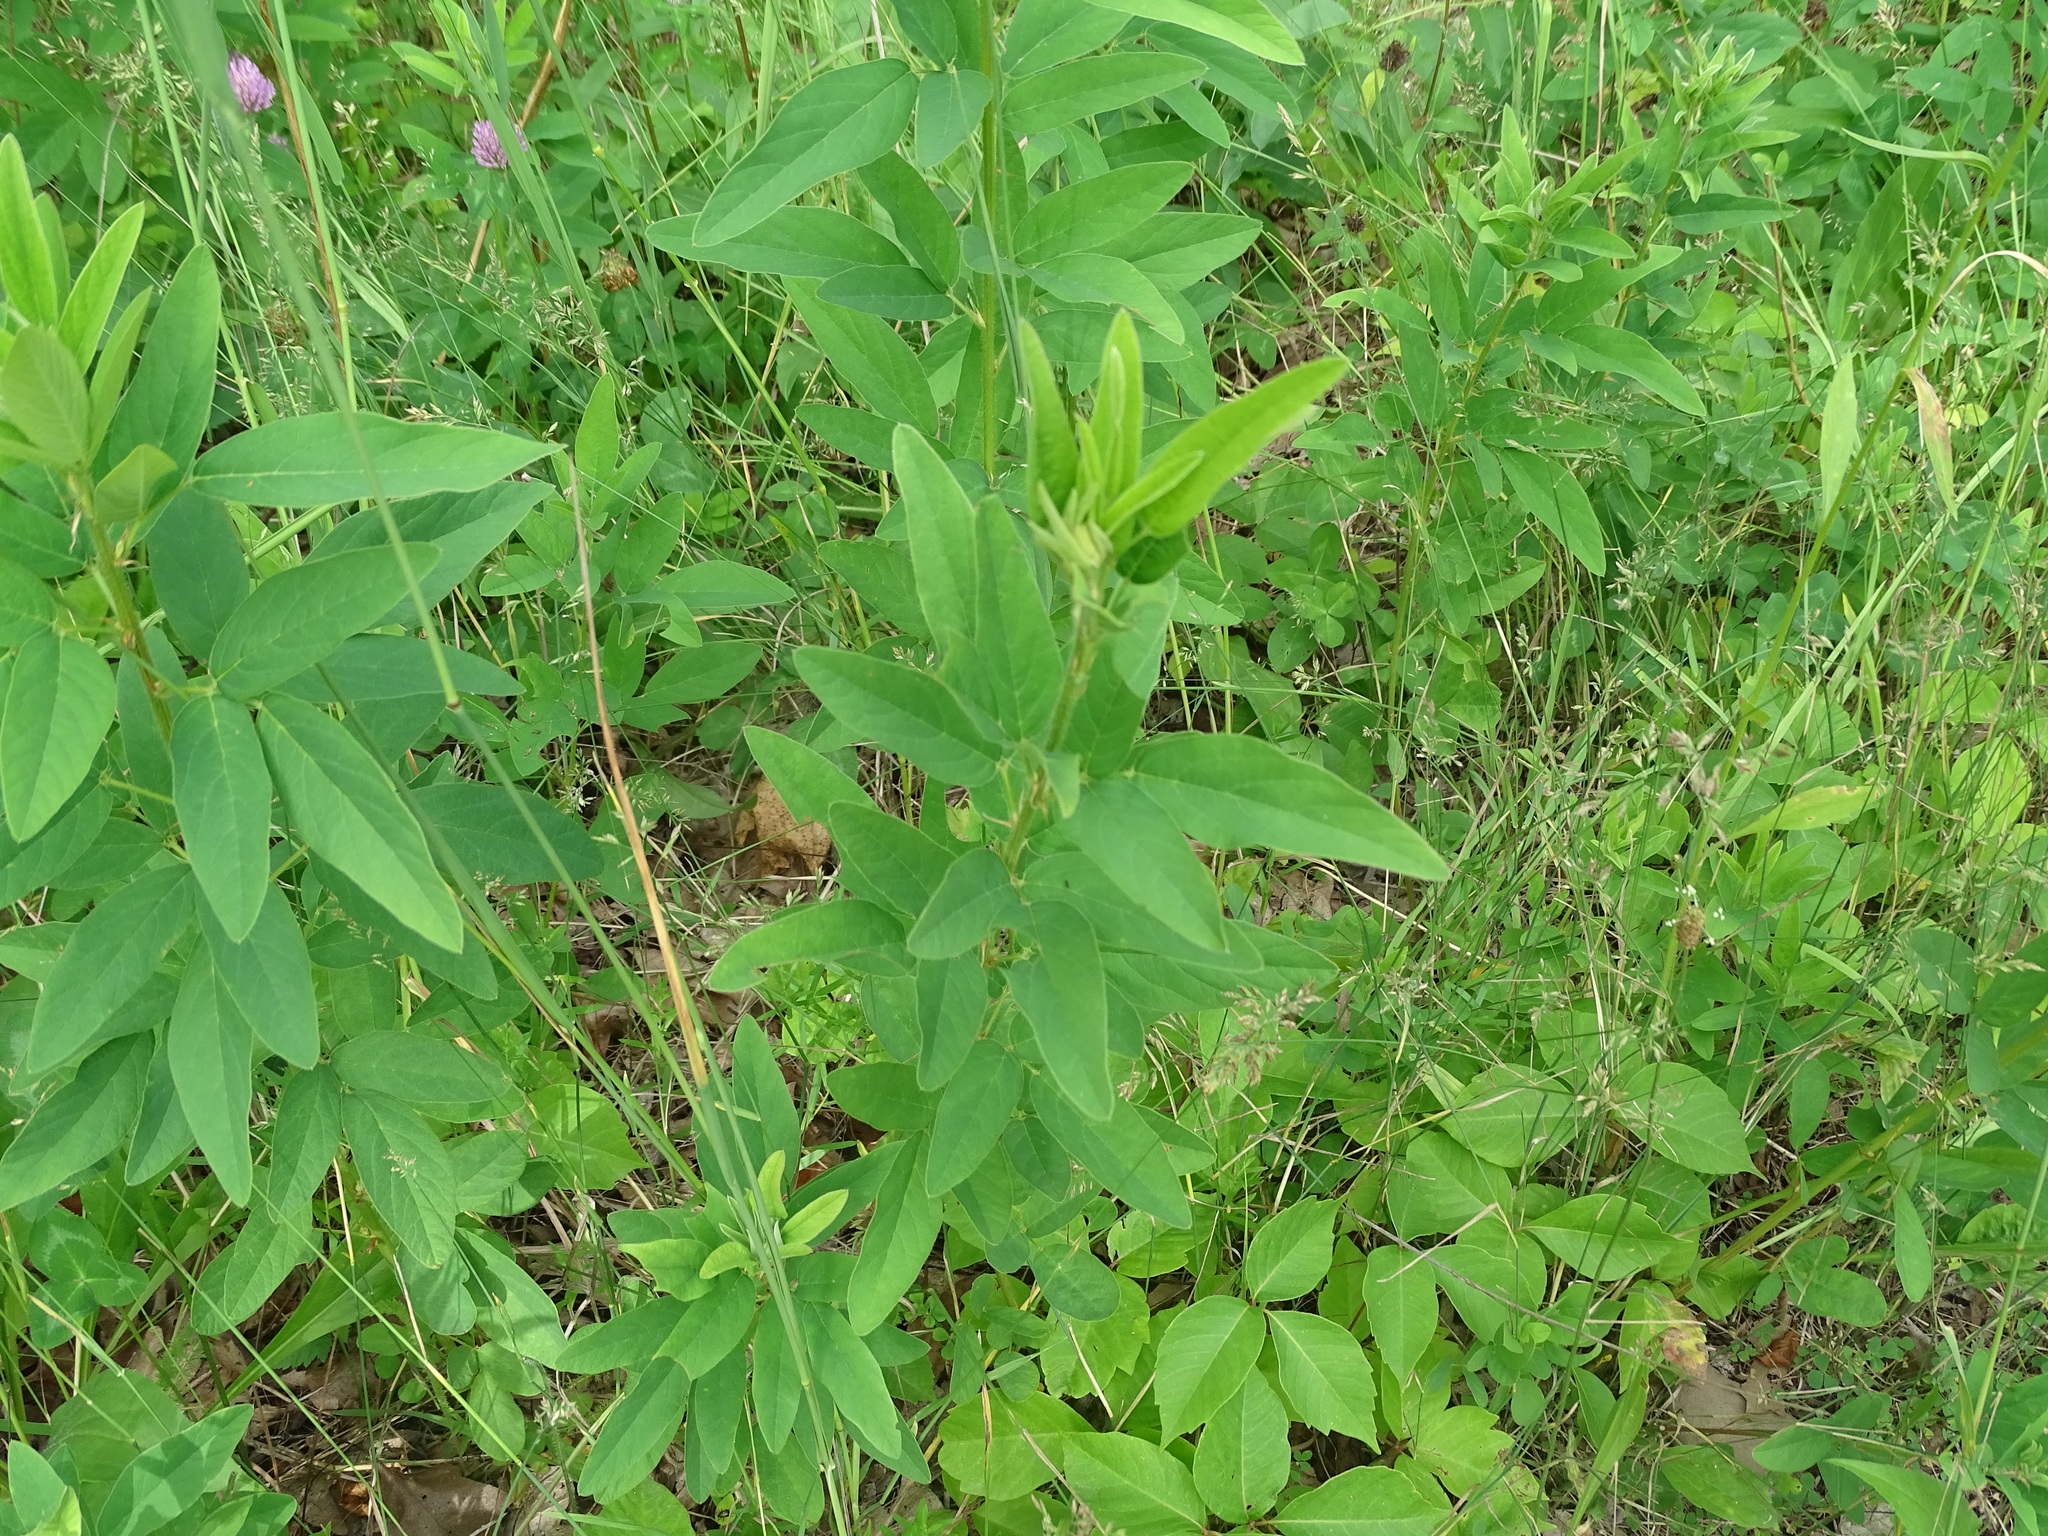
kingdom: Plantae
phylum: Tracheophyta
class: Magnoliopsida
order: Fabales
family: Fabaceae
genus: Desmodium
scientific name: Desmodium canadense
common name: Canada tick-trefoil
